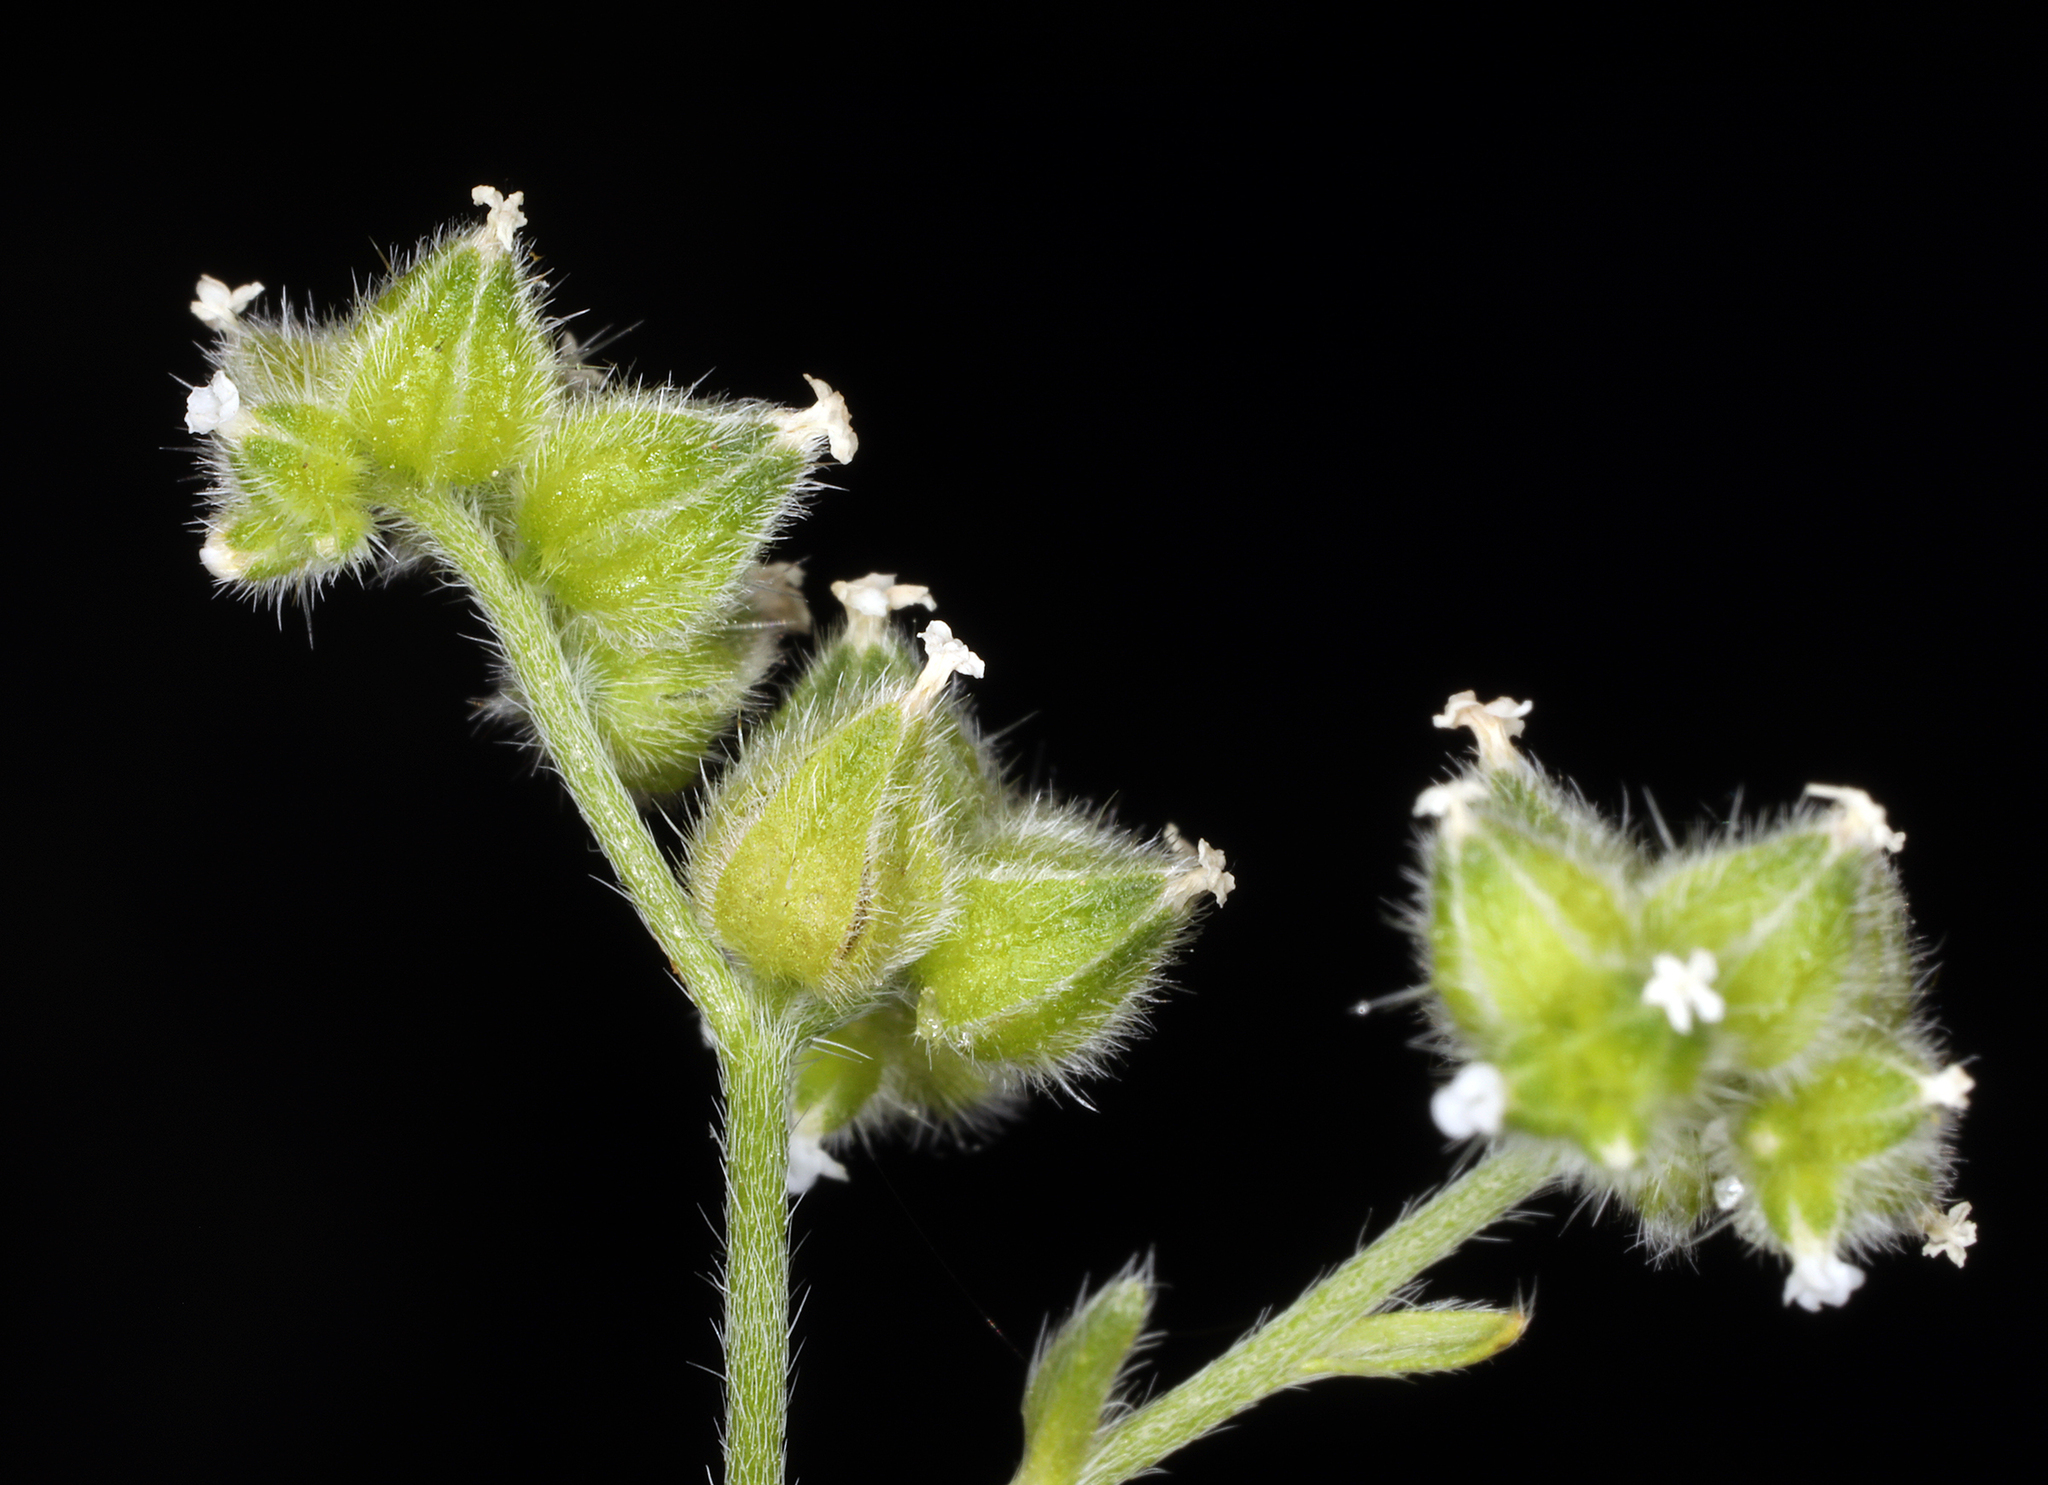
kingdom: Plantae
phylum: Tracheophyta
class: Magnoliopsida
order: Boraginales
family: Boraginaceae
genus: Cryptantha
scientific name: Cryptantha pterocarya
